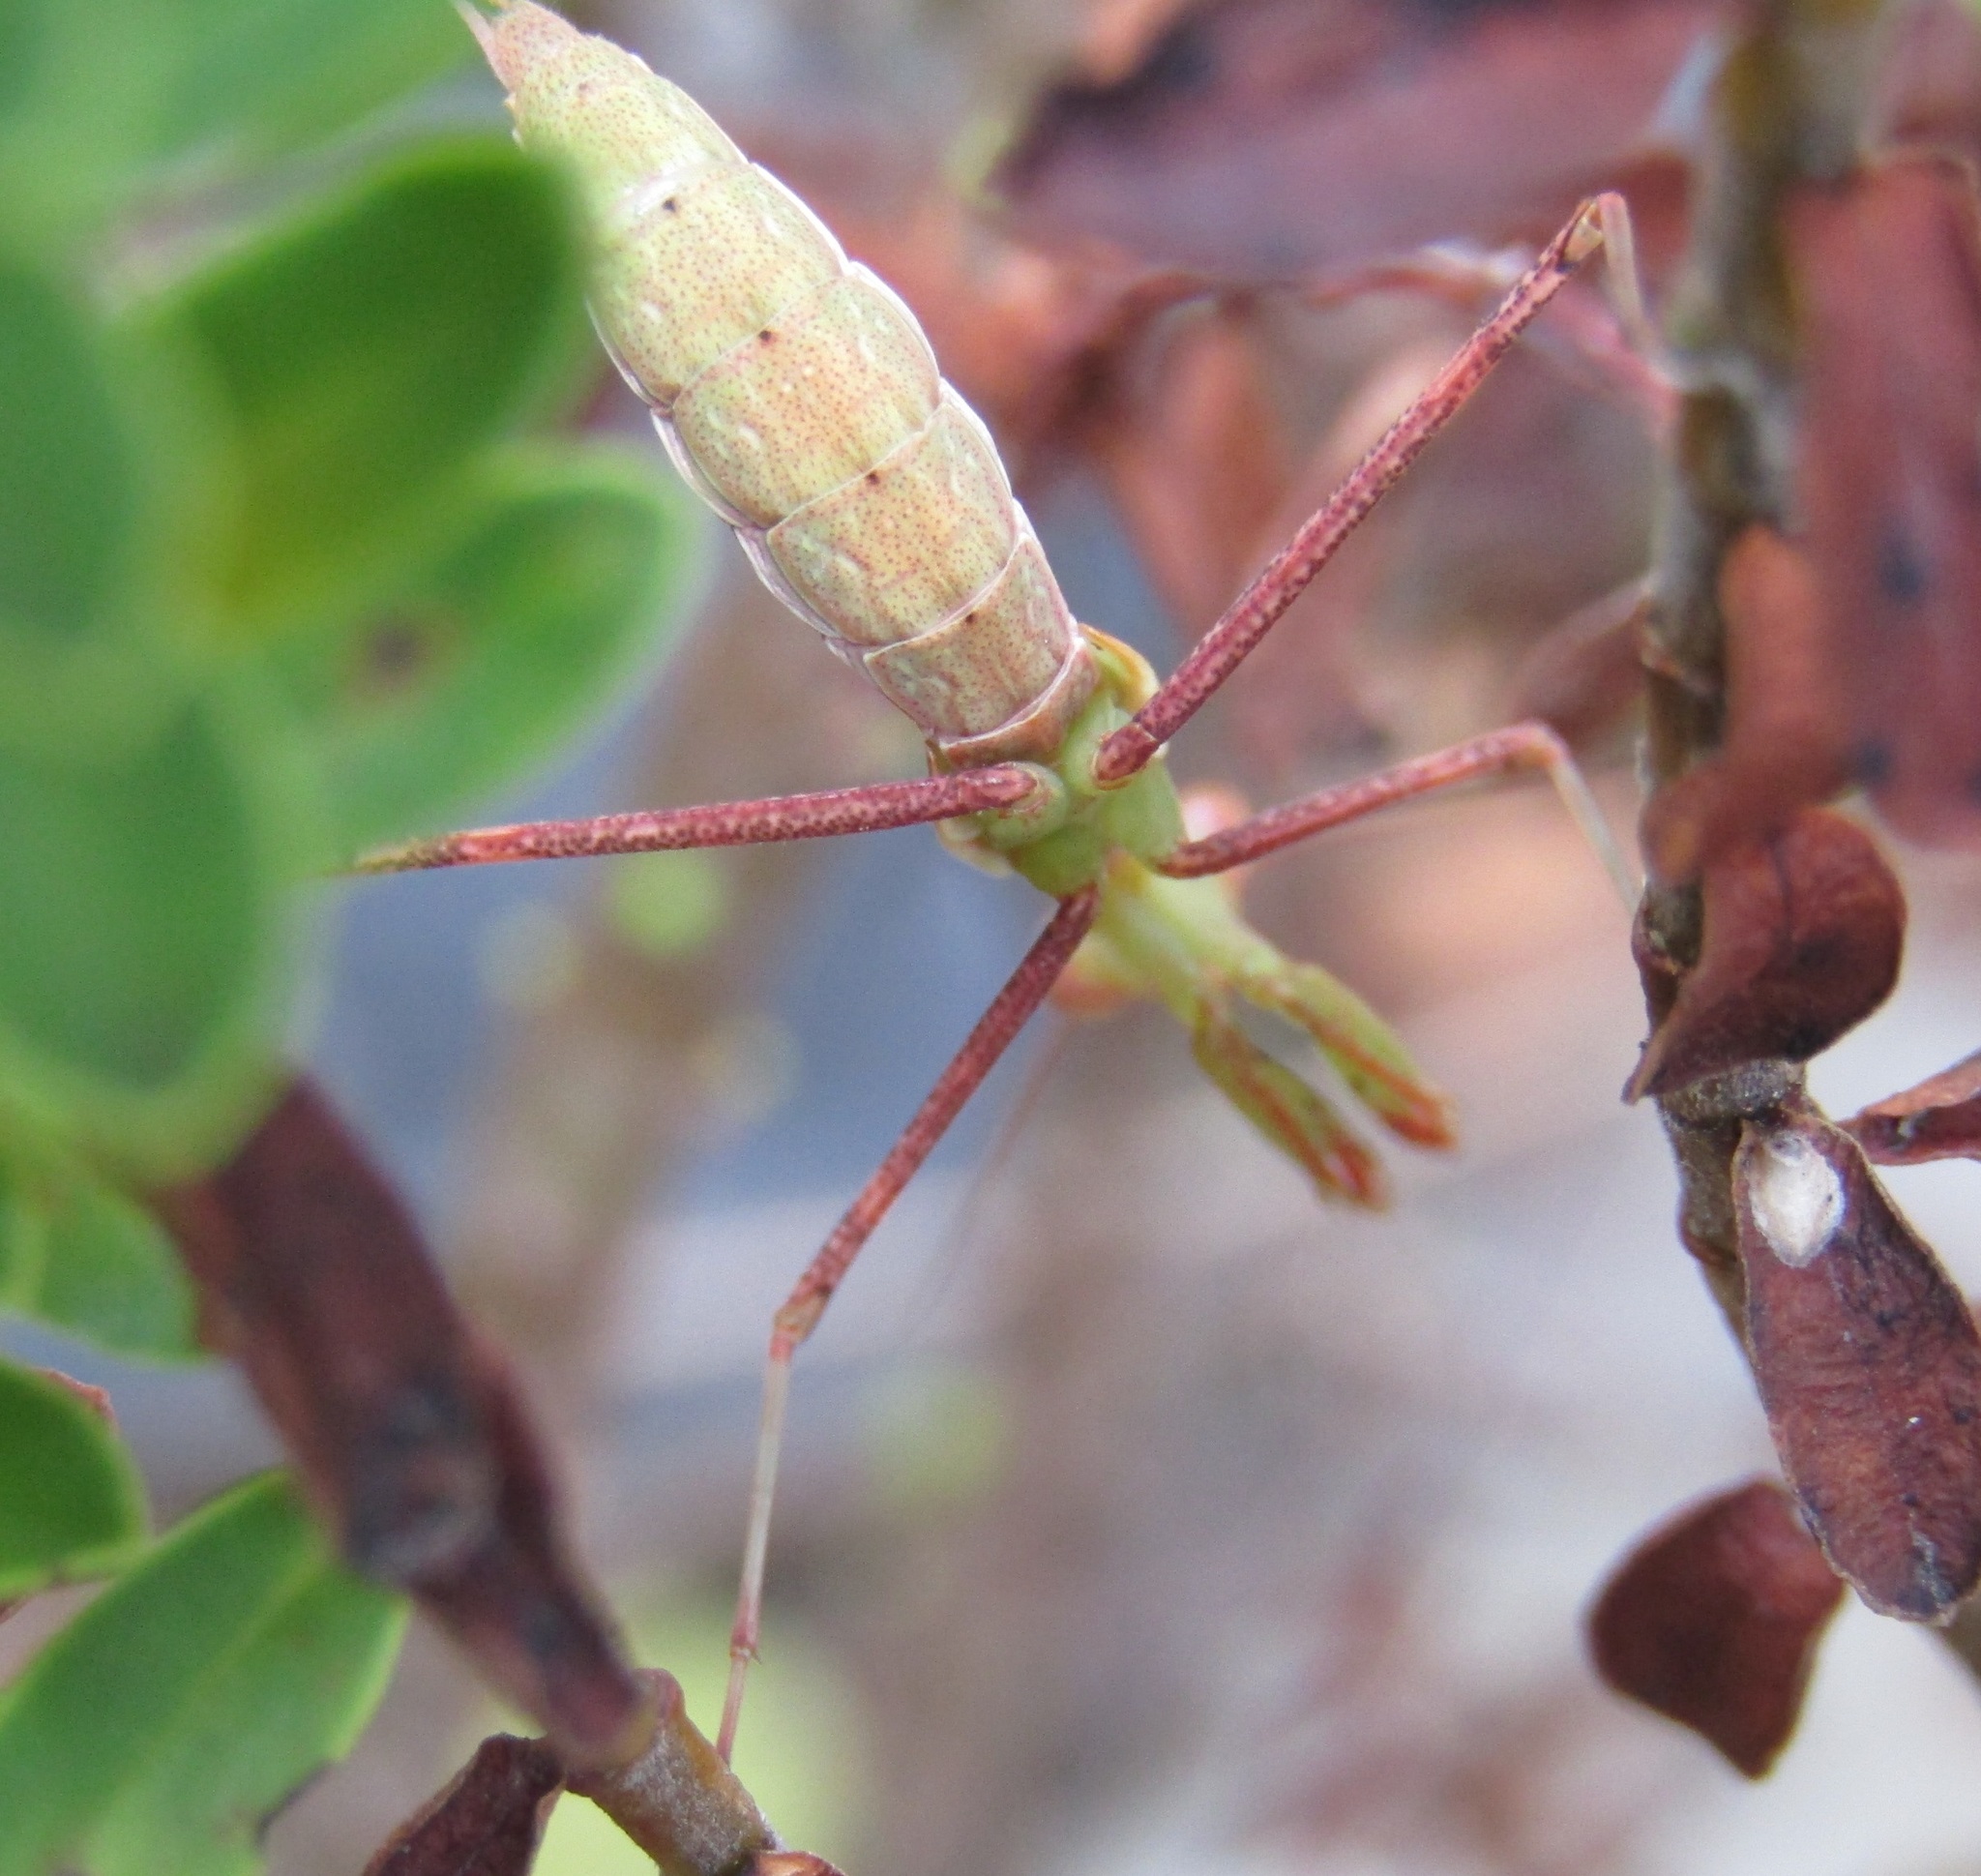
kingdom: Animalia
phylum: Arthropoda
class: Insecta
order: Mantodea
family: Miomantidae
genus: Miomantis
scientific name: Miomantis caffra
